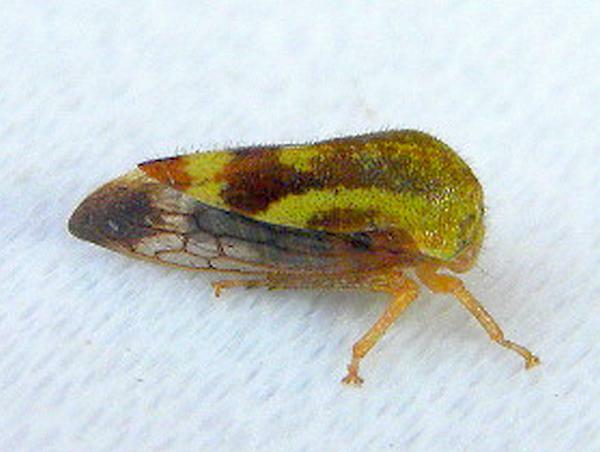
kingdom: Animalia
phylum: Arthropoda
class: Insecta
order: Hemiptera
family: Membracidae
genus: Ophiderma
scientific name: Ophiderma evelyna
